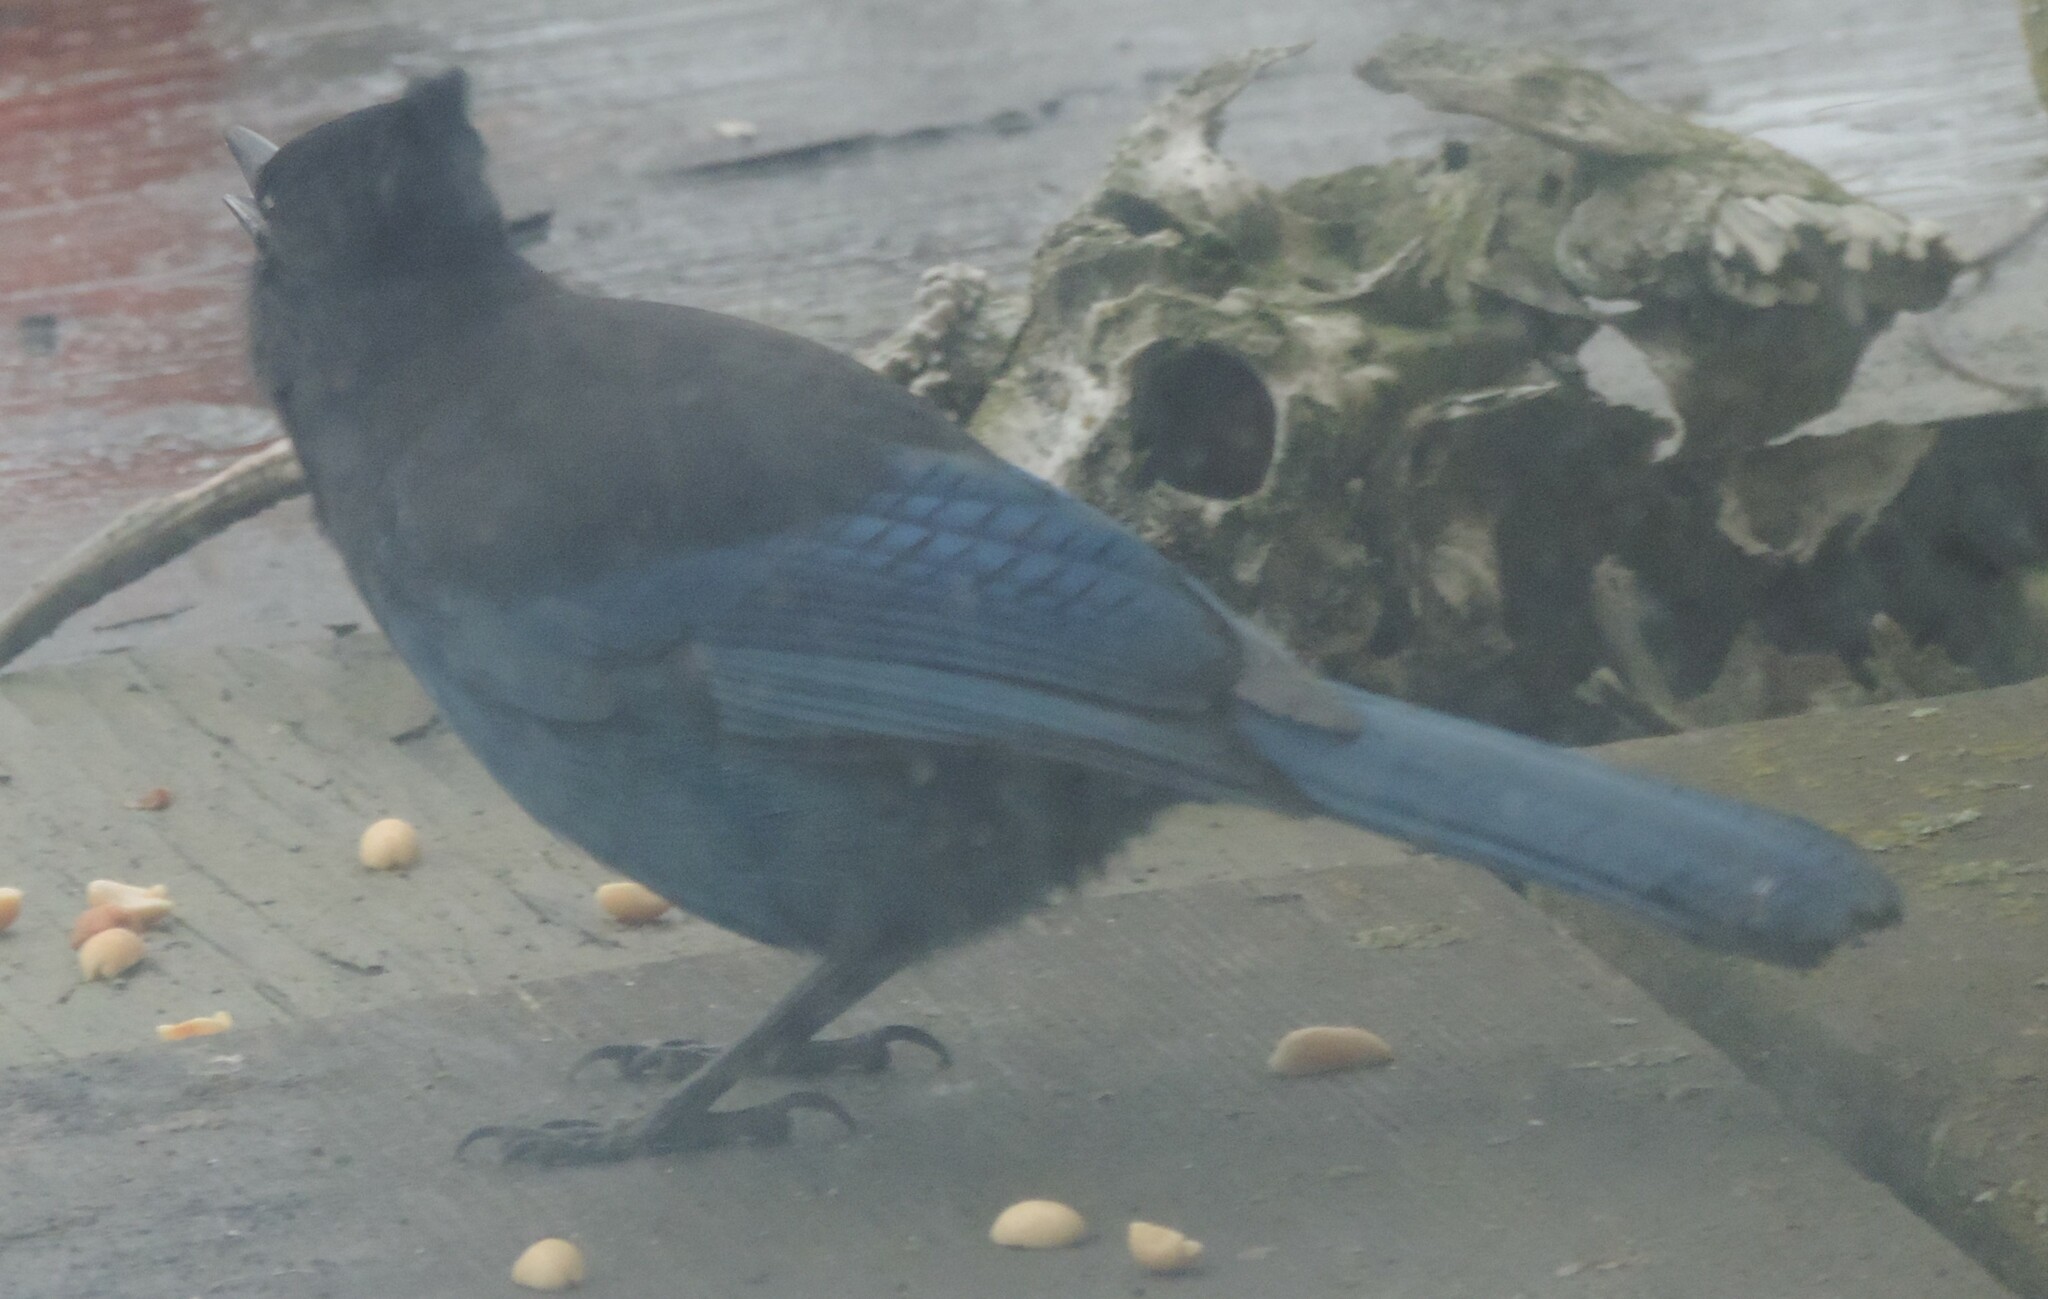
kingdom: Animalia
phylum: Chordata
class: Aves
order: Passeriformes
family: Corvidae
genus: Cyanocitta
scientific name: Cyanocitta stelleri
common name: Steller's jay
